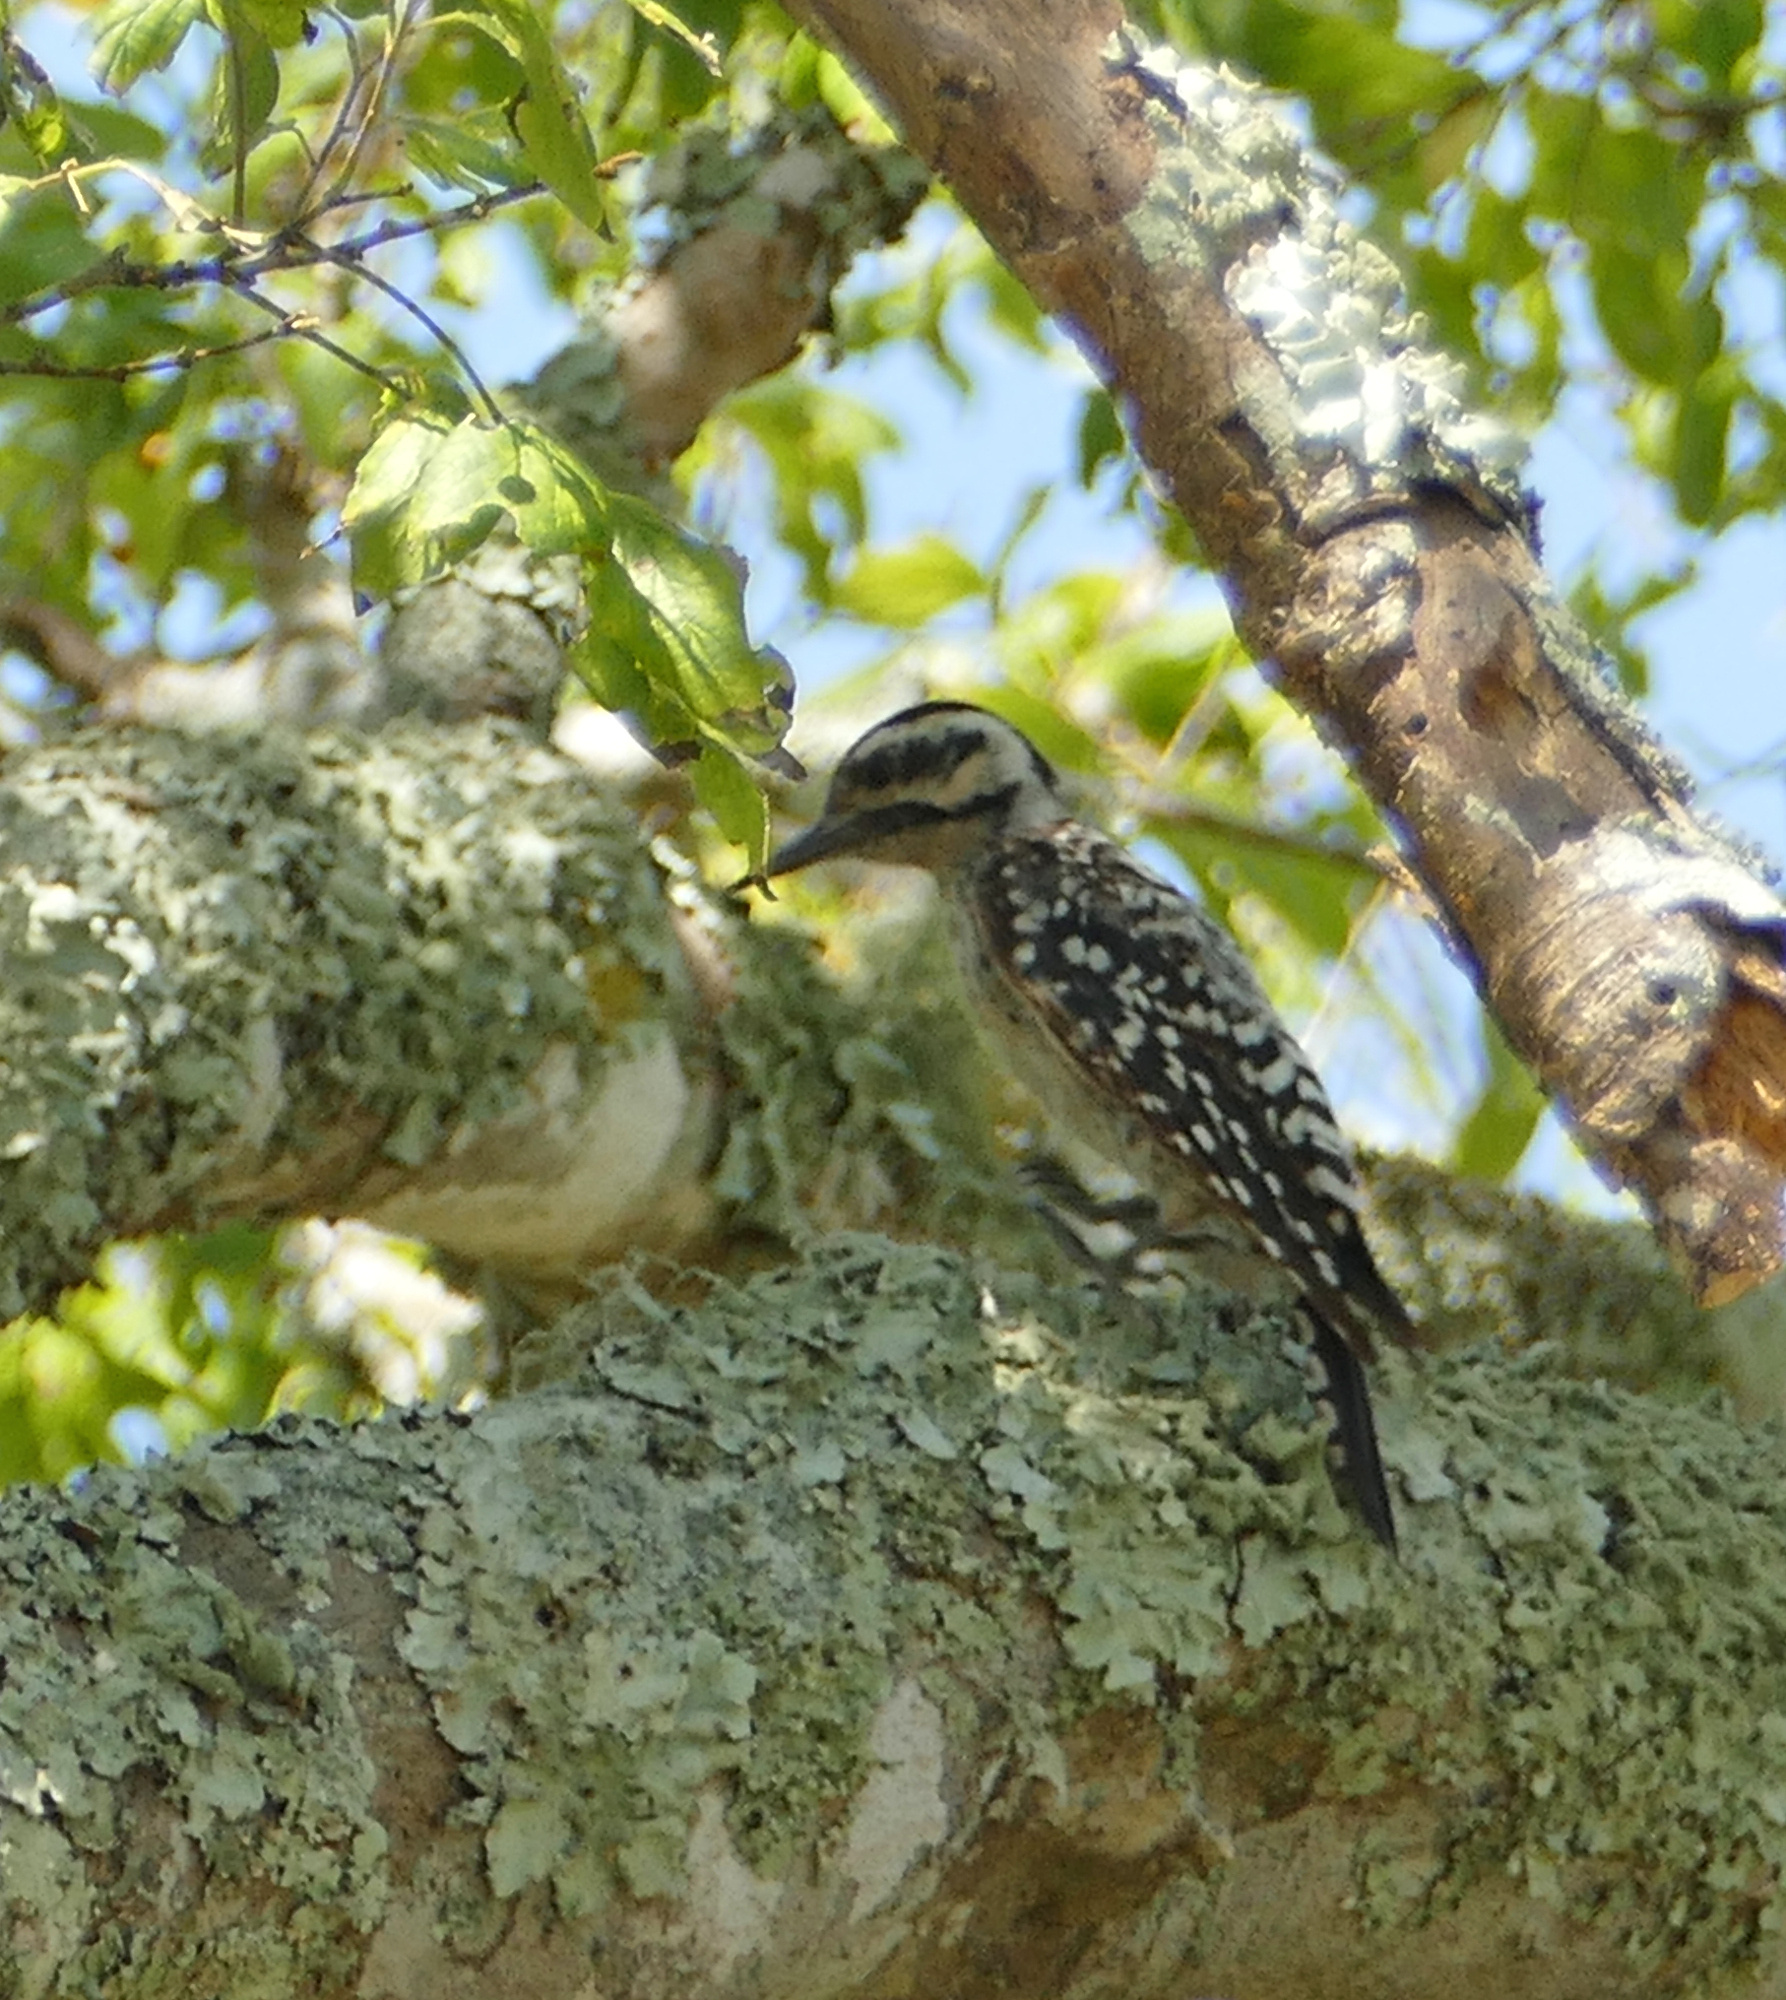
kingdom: Animalia
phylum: Chordata
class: Aves
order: Piciformes
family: Picidae
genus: Dryobates
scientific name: Dryobates scalaris
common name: Ladder-backed woodpecker
